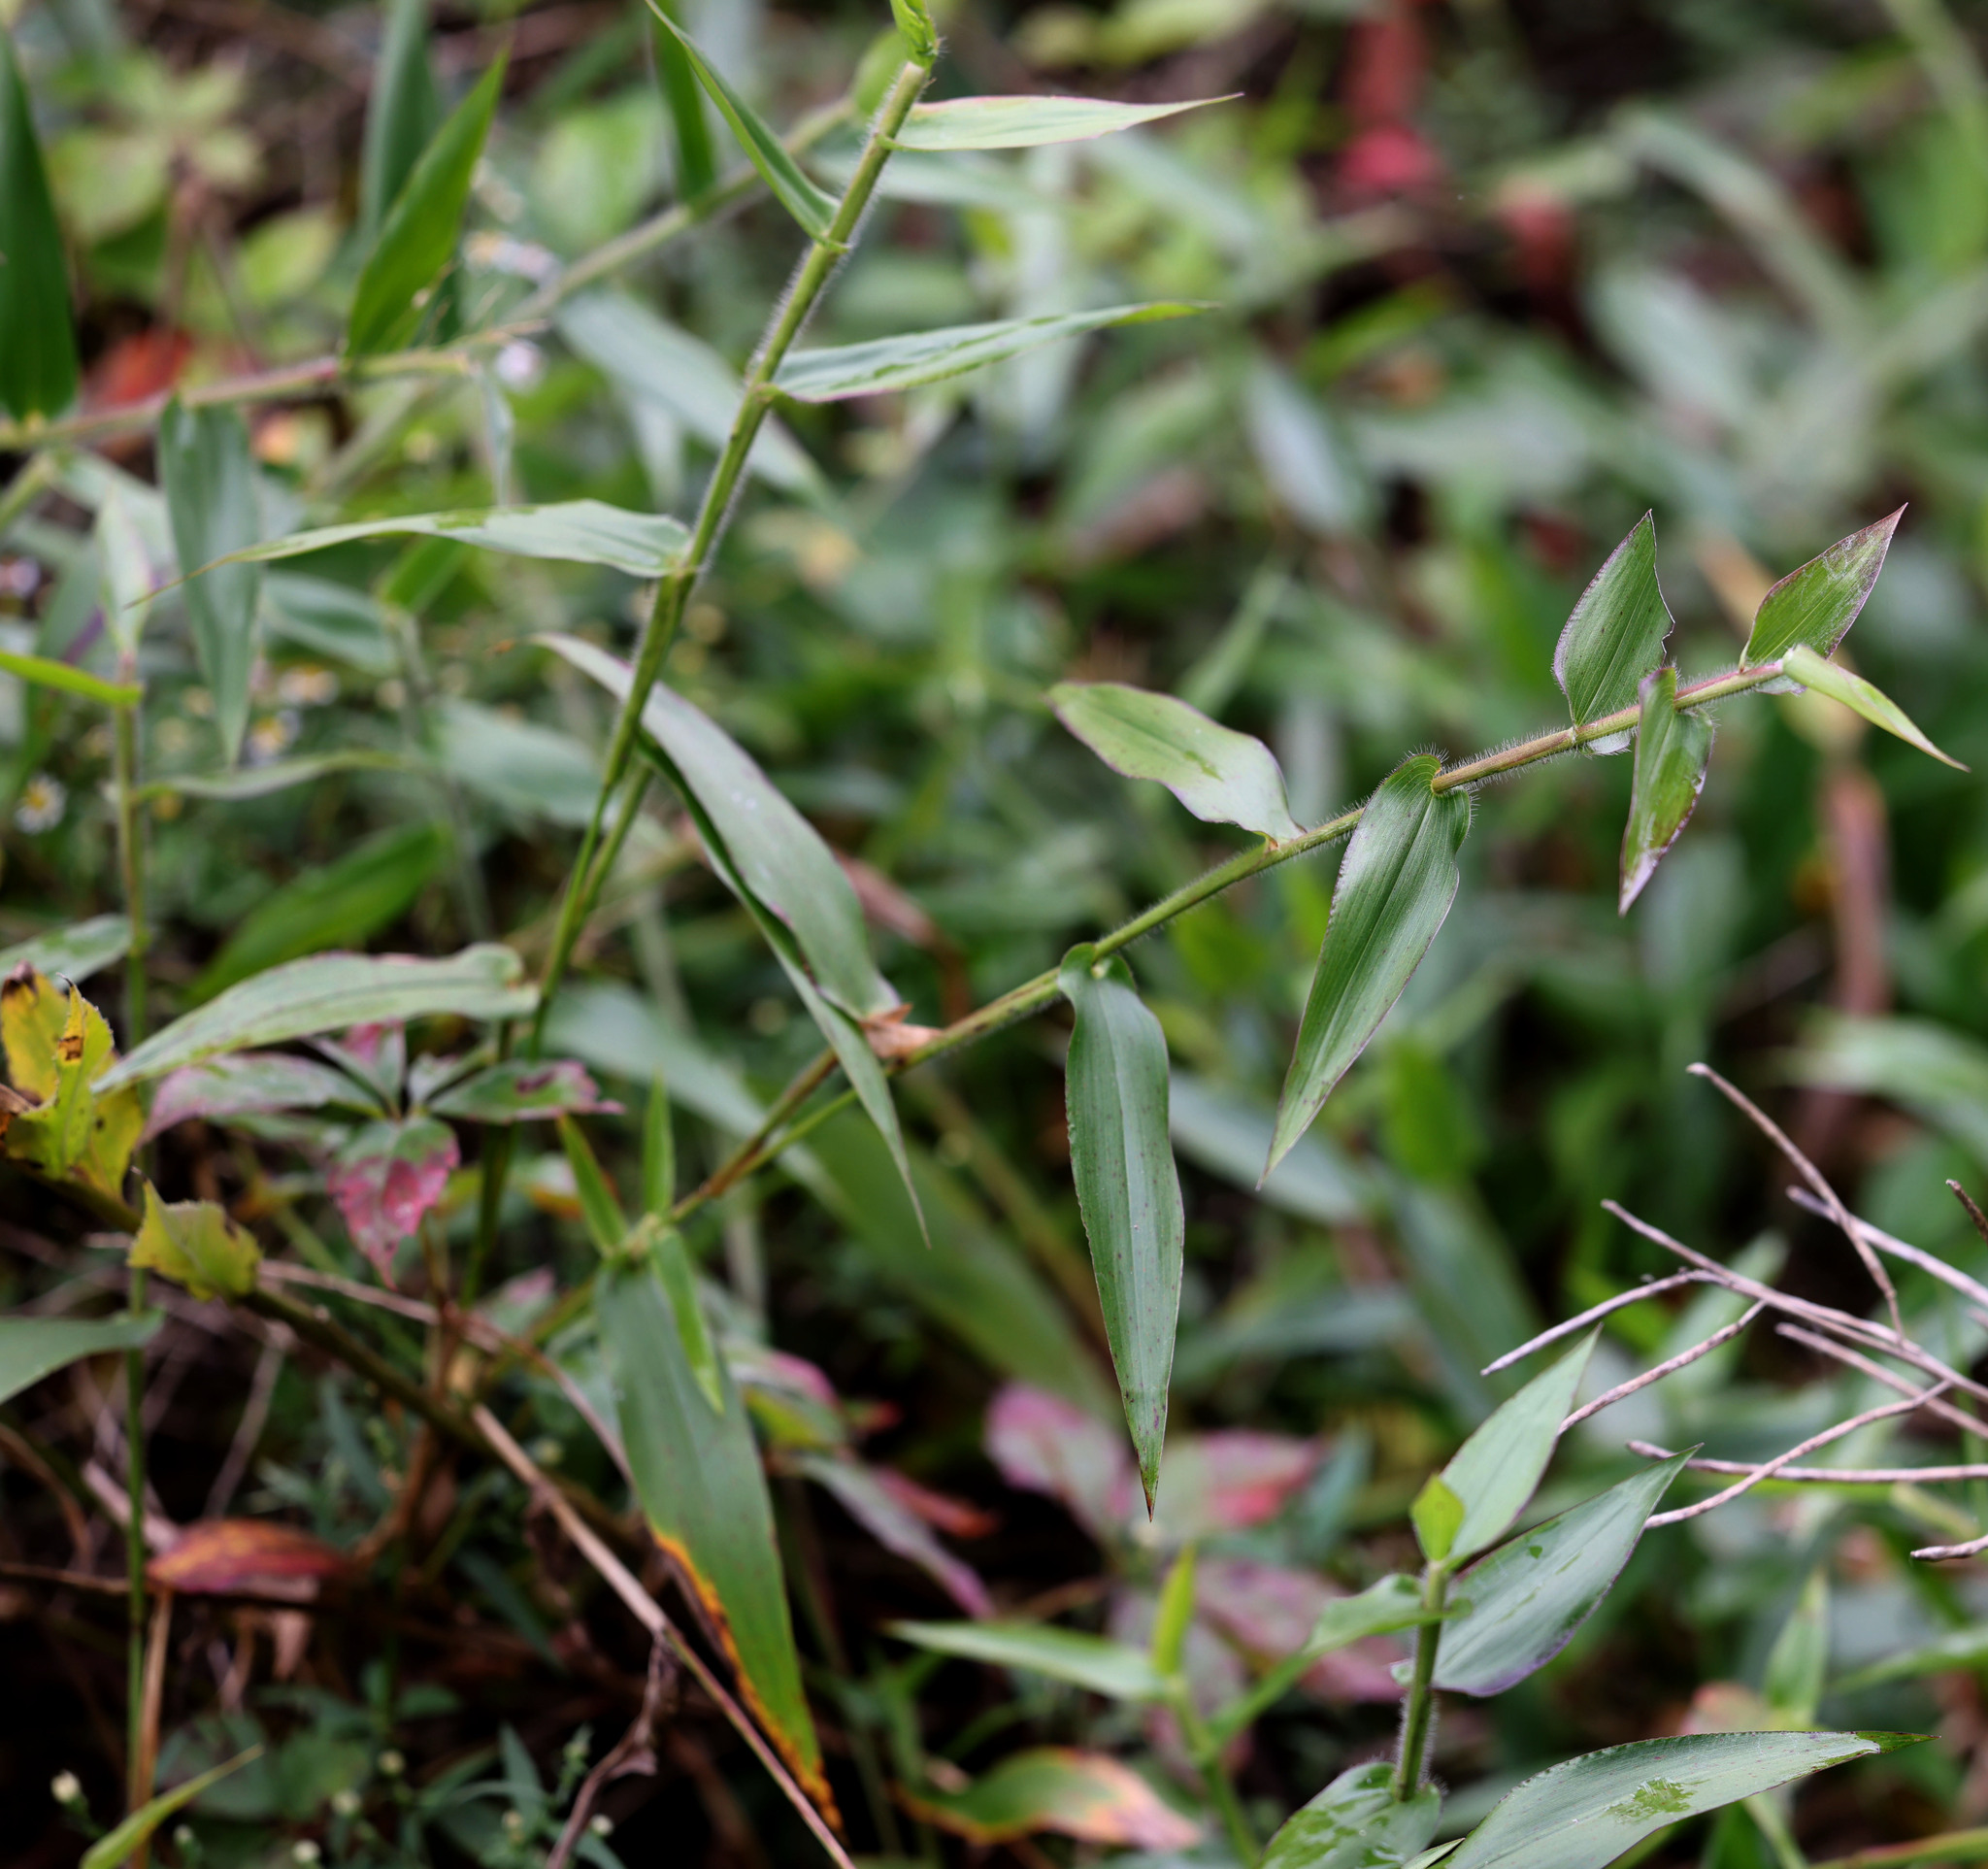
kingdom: Plantae
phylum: Tracheophyta
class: Liliopsida
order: Poales
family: Poaceae
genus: Dichanthelium
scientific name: Dichanthelium clandestinum
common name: Deer-tongue grass
